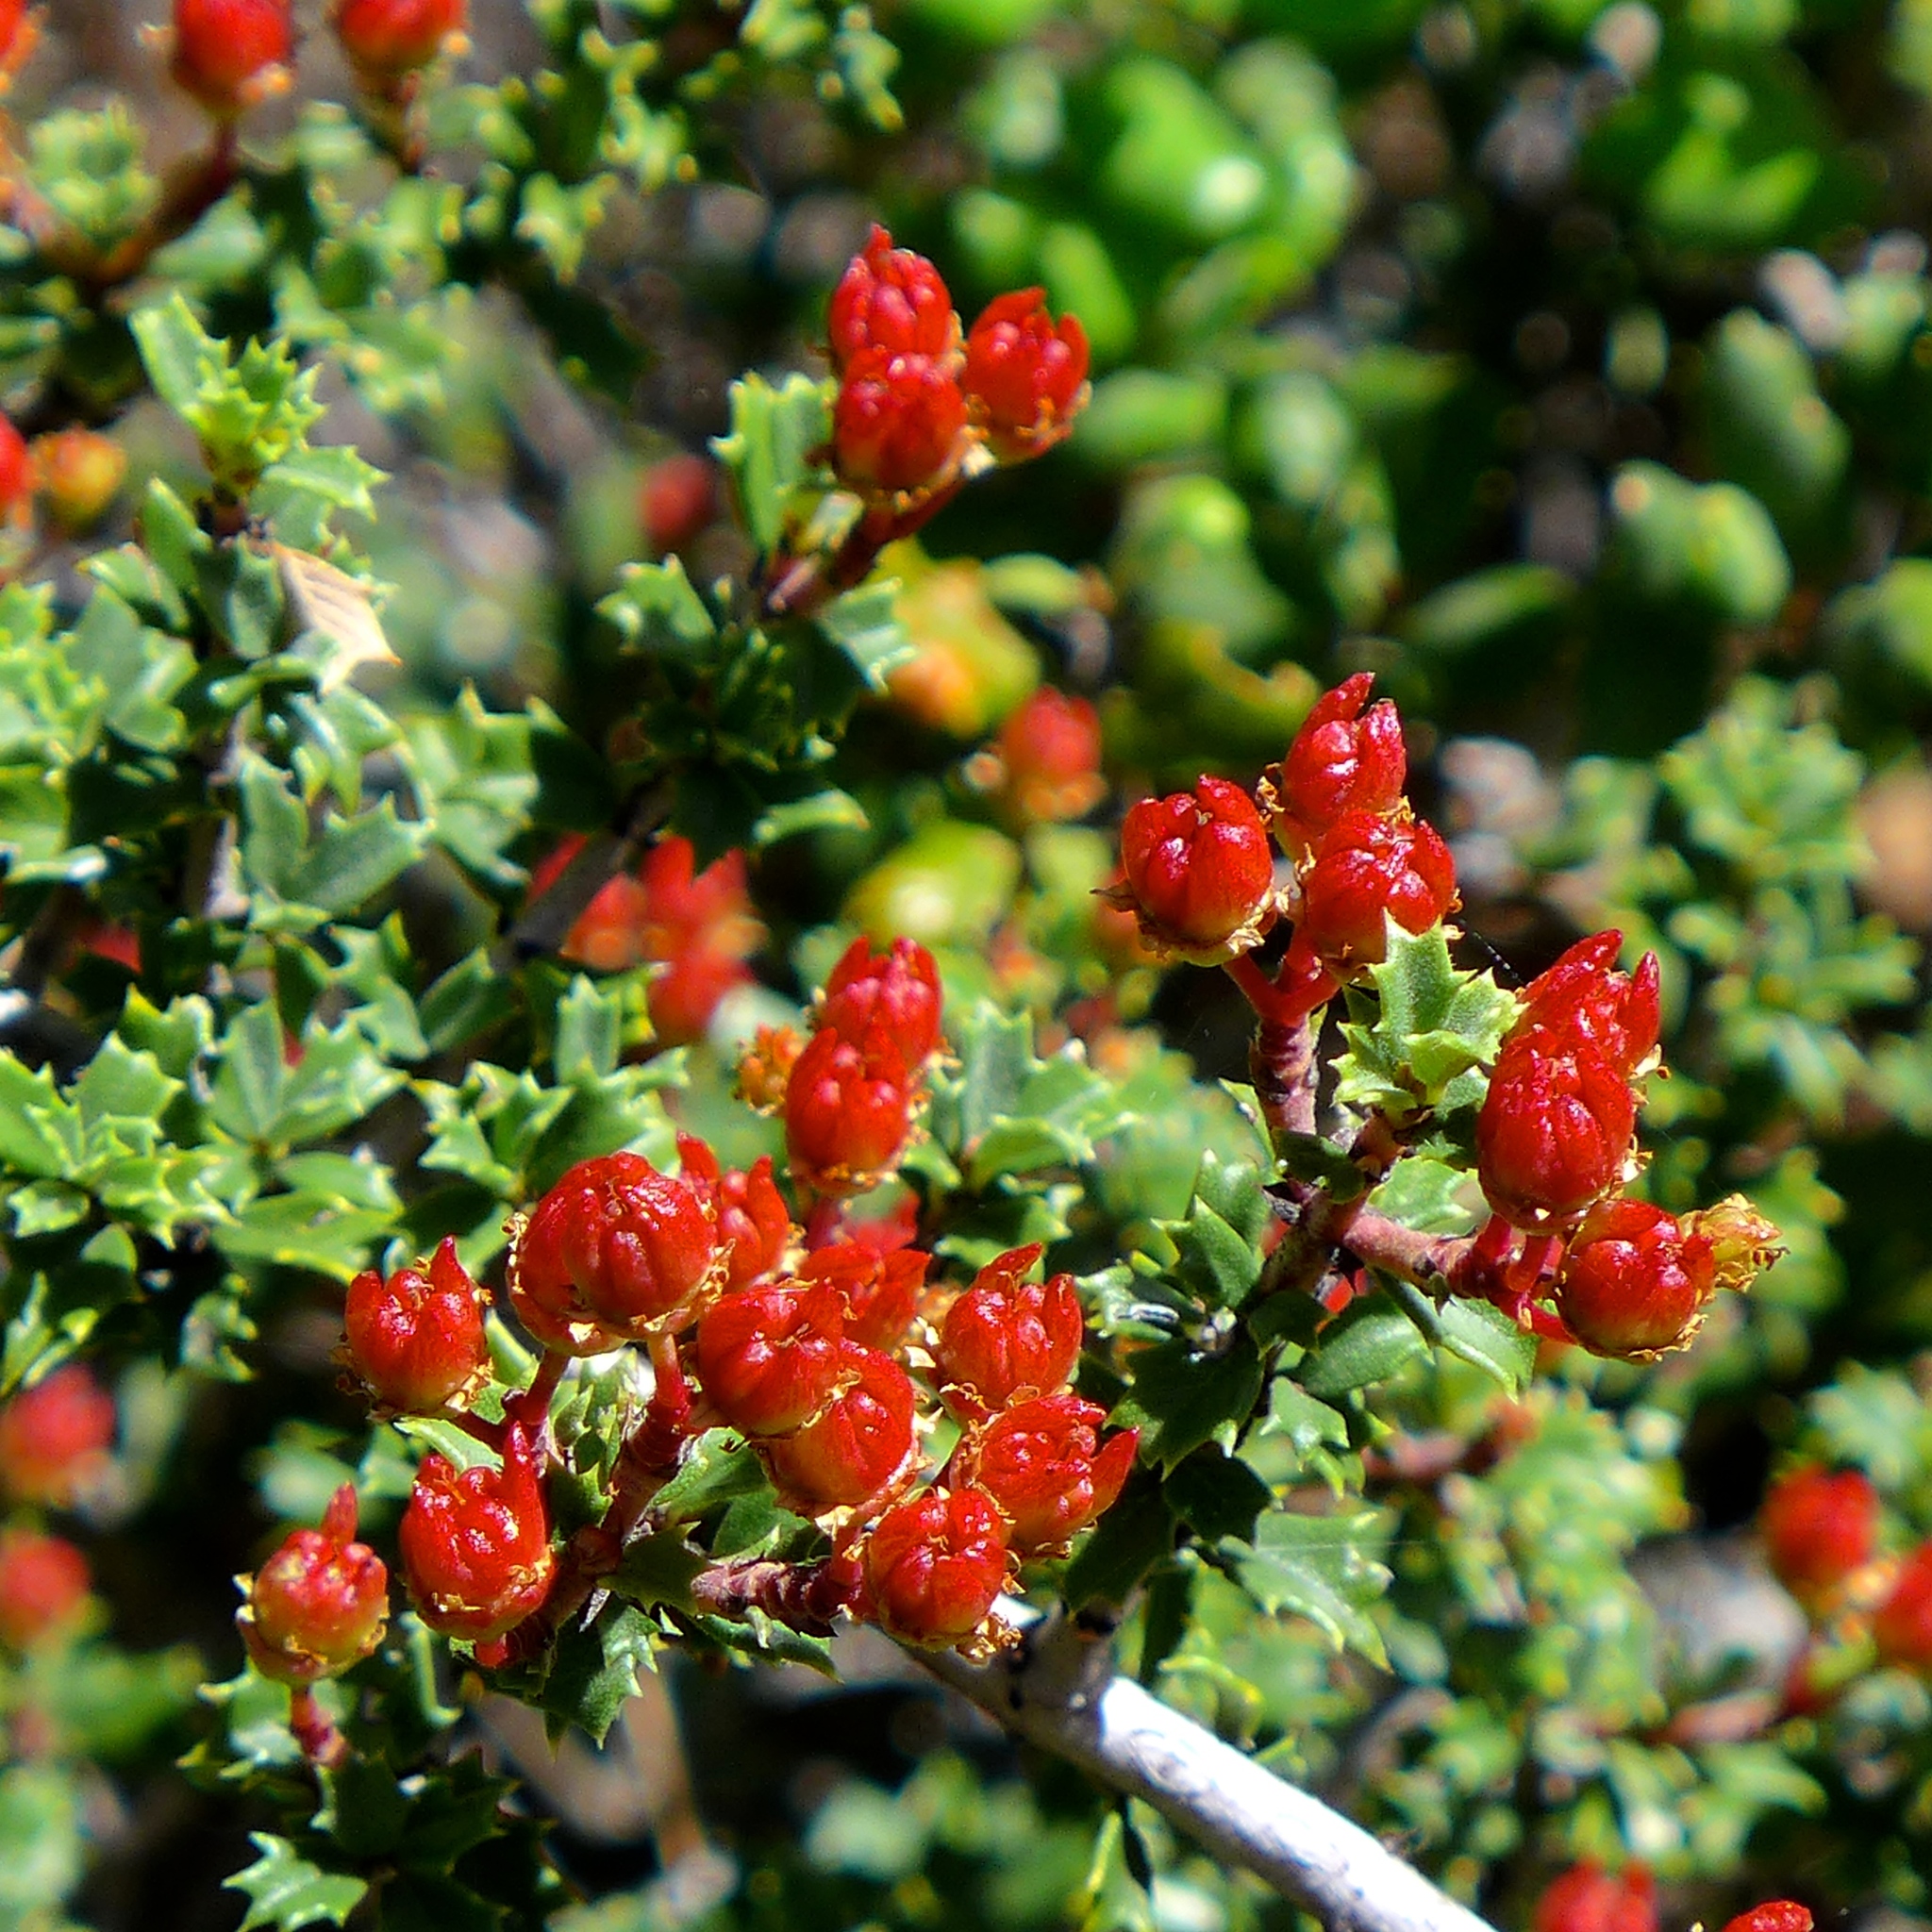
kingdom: Plantae
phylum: Tracheophyta
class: Magnoliopsida
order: Rosales
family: Rhamnaceae
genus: Ceanothus
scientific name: Ceanothus divergens
